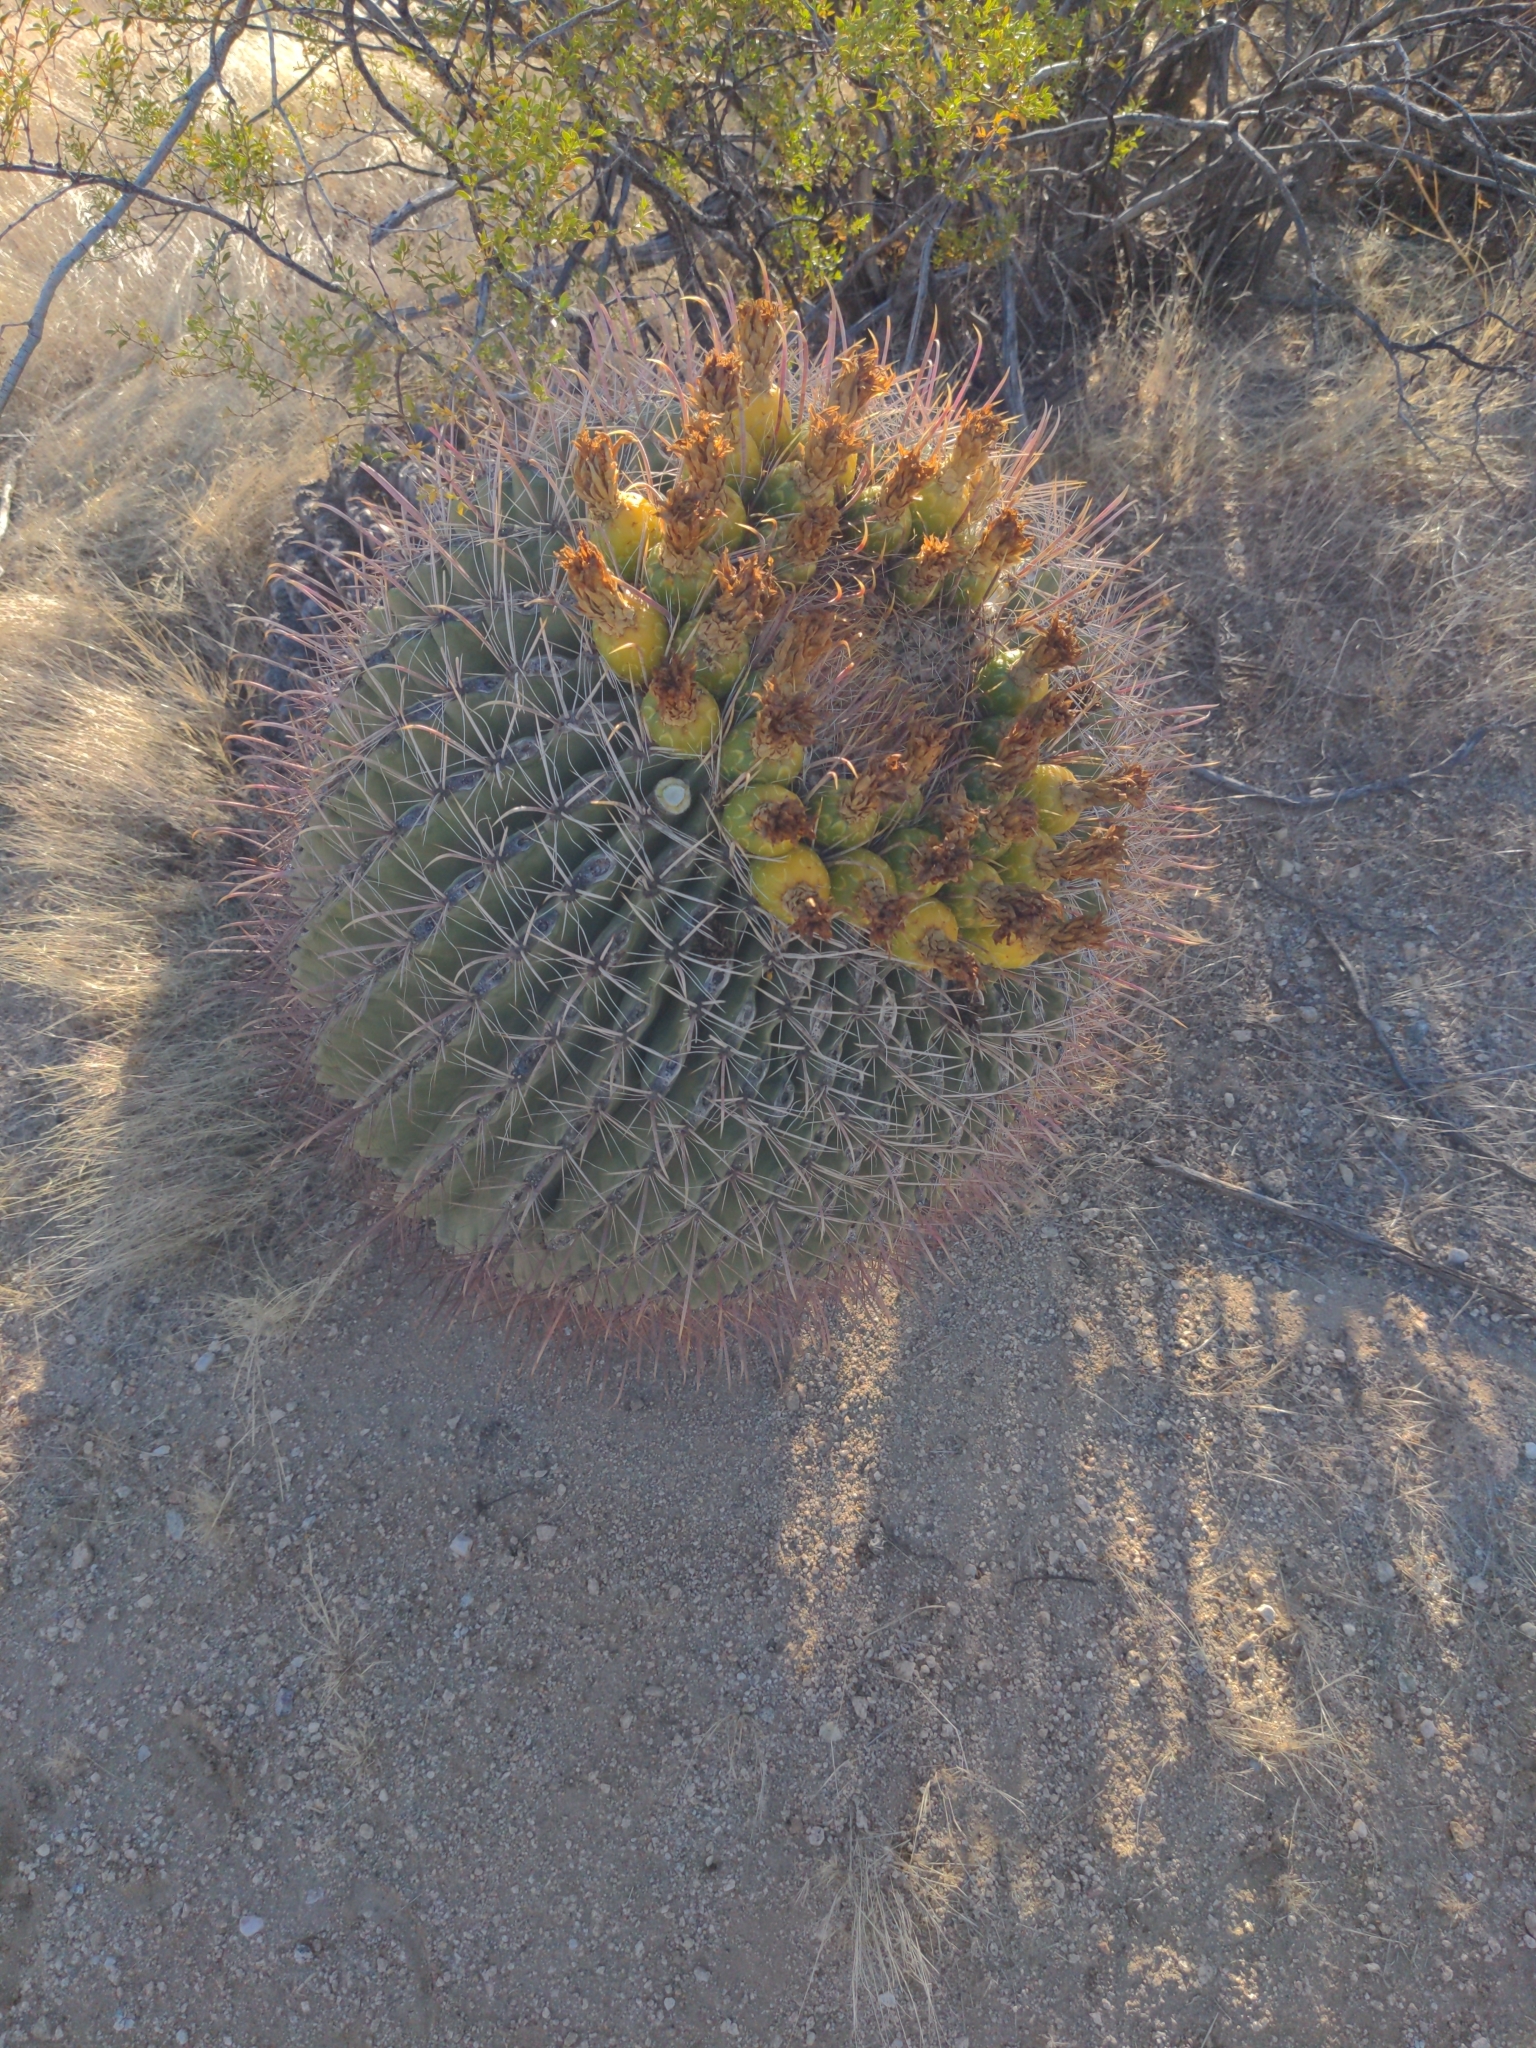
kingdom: Plantae
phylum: Tracheophyta
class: Magnoliopsida
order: Caryophyllales
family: Cactaceae
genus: Ferocactus
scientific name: Ferocactus wislizeni
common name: Candy barrel cactus
